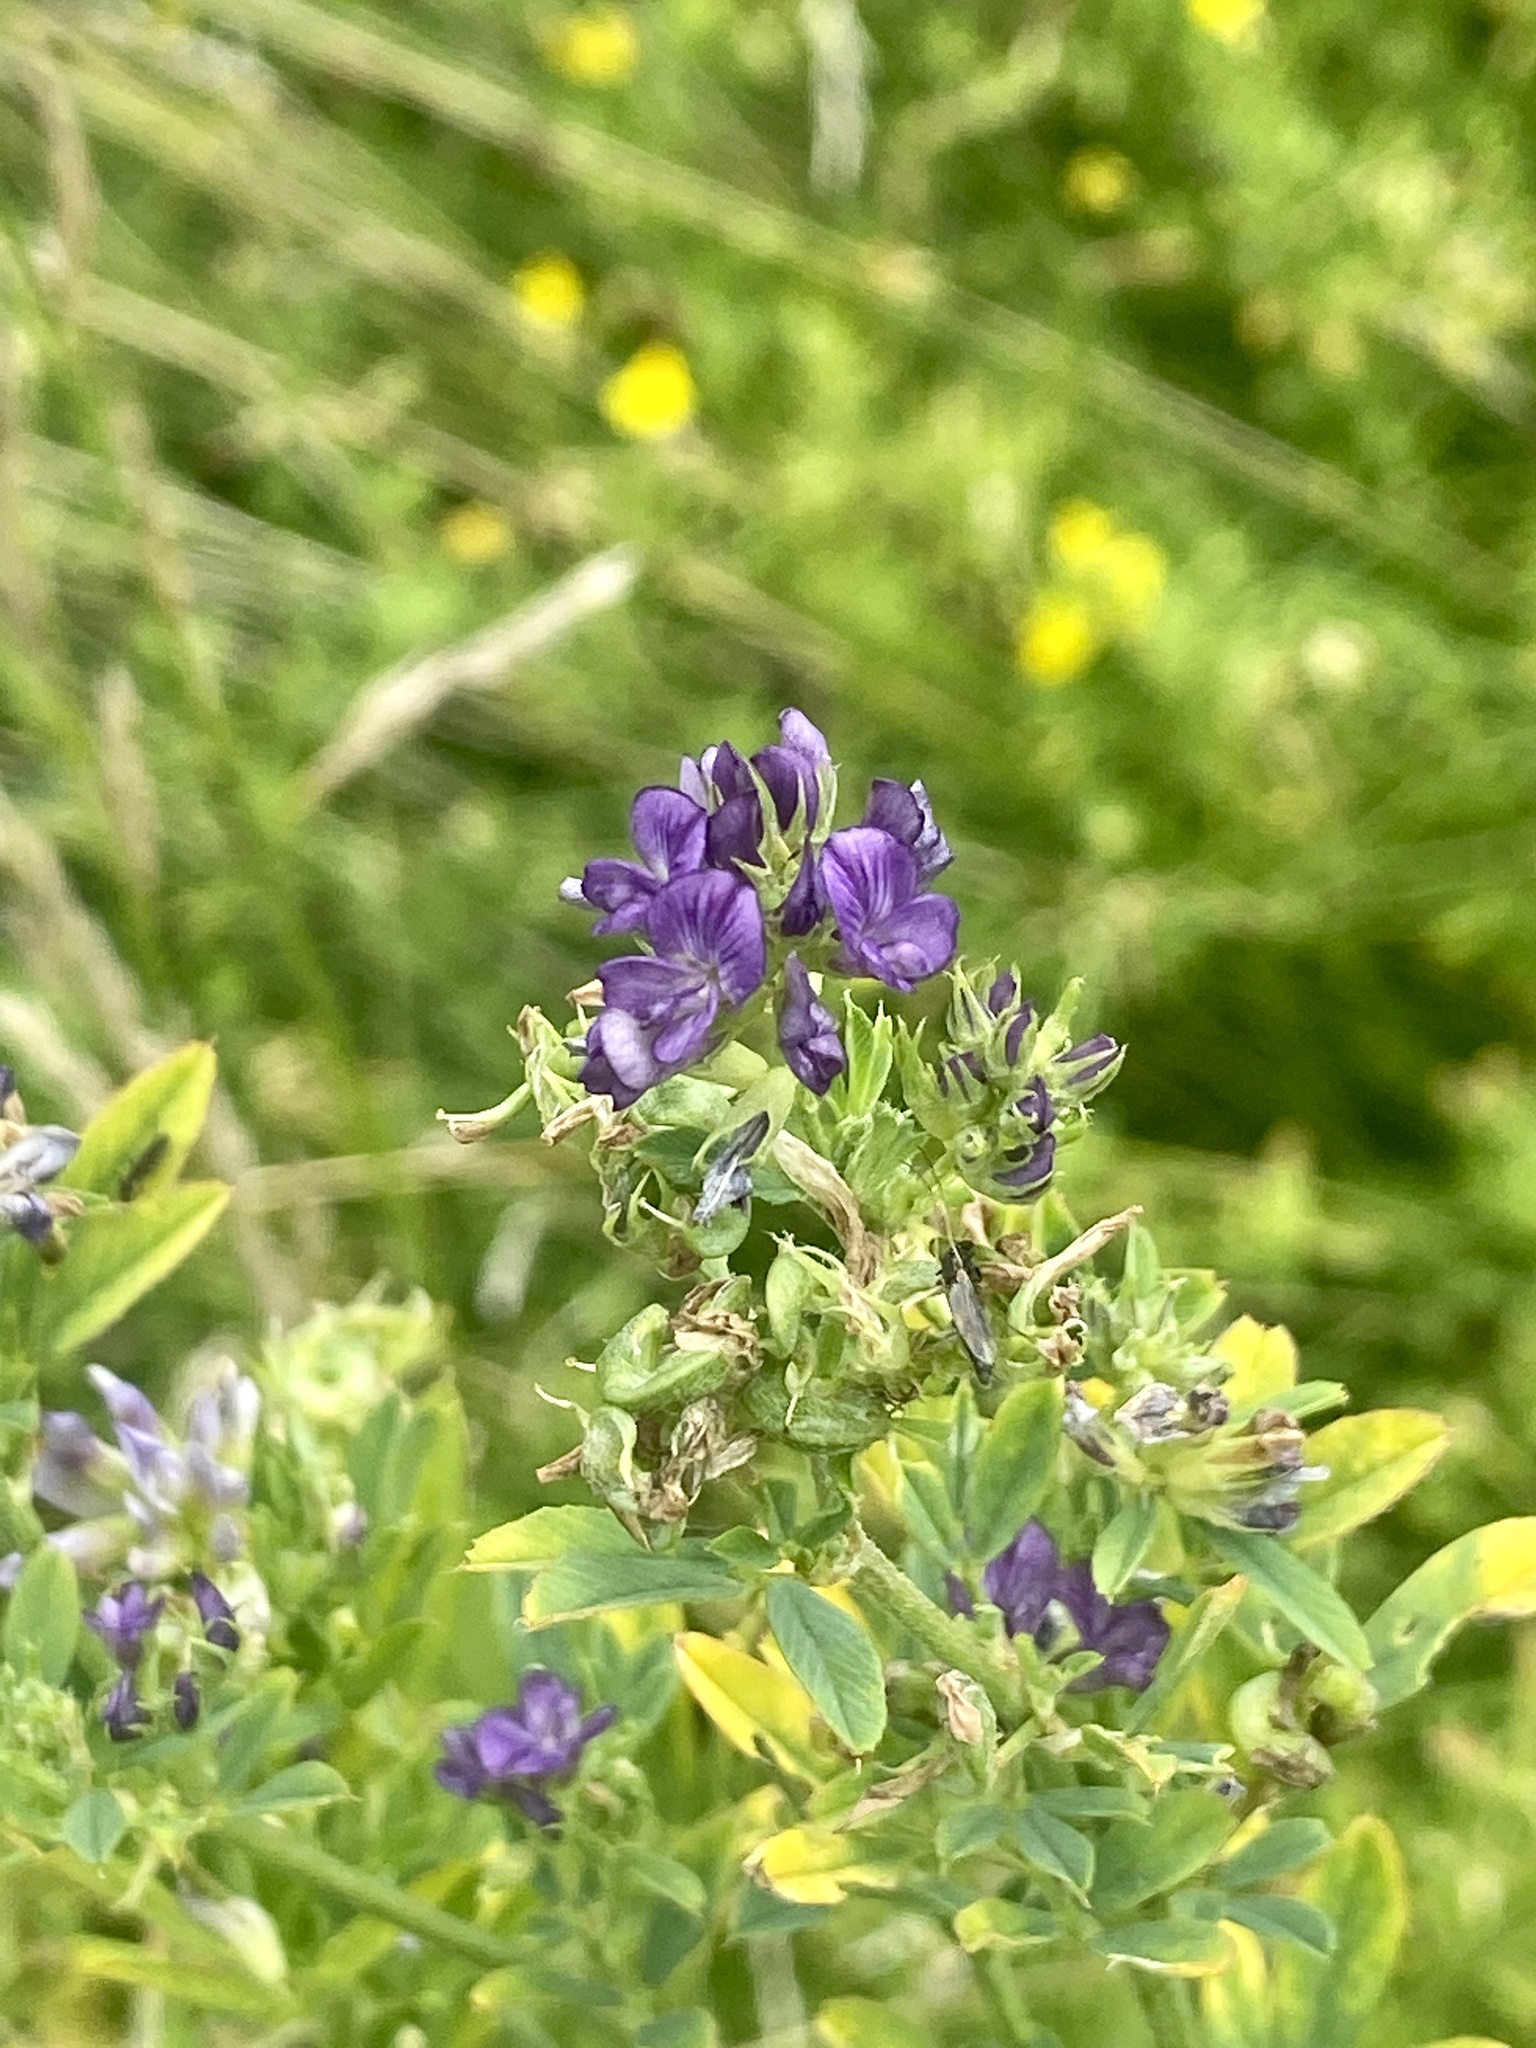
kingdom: Plantae
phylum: Tracheophyta
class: Magnoliopsida
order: Fabales
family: Fabaceae
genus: Medicago
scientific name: Medicago sativa
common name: Alfalfa
